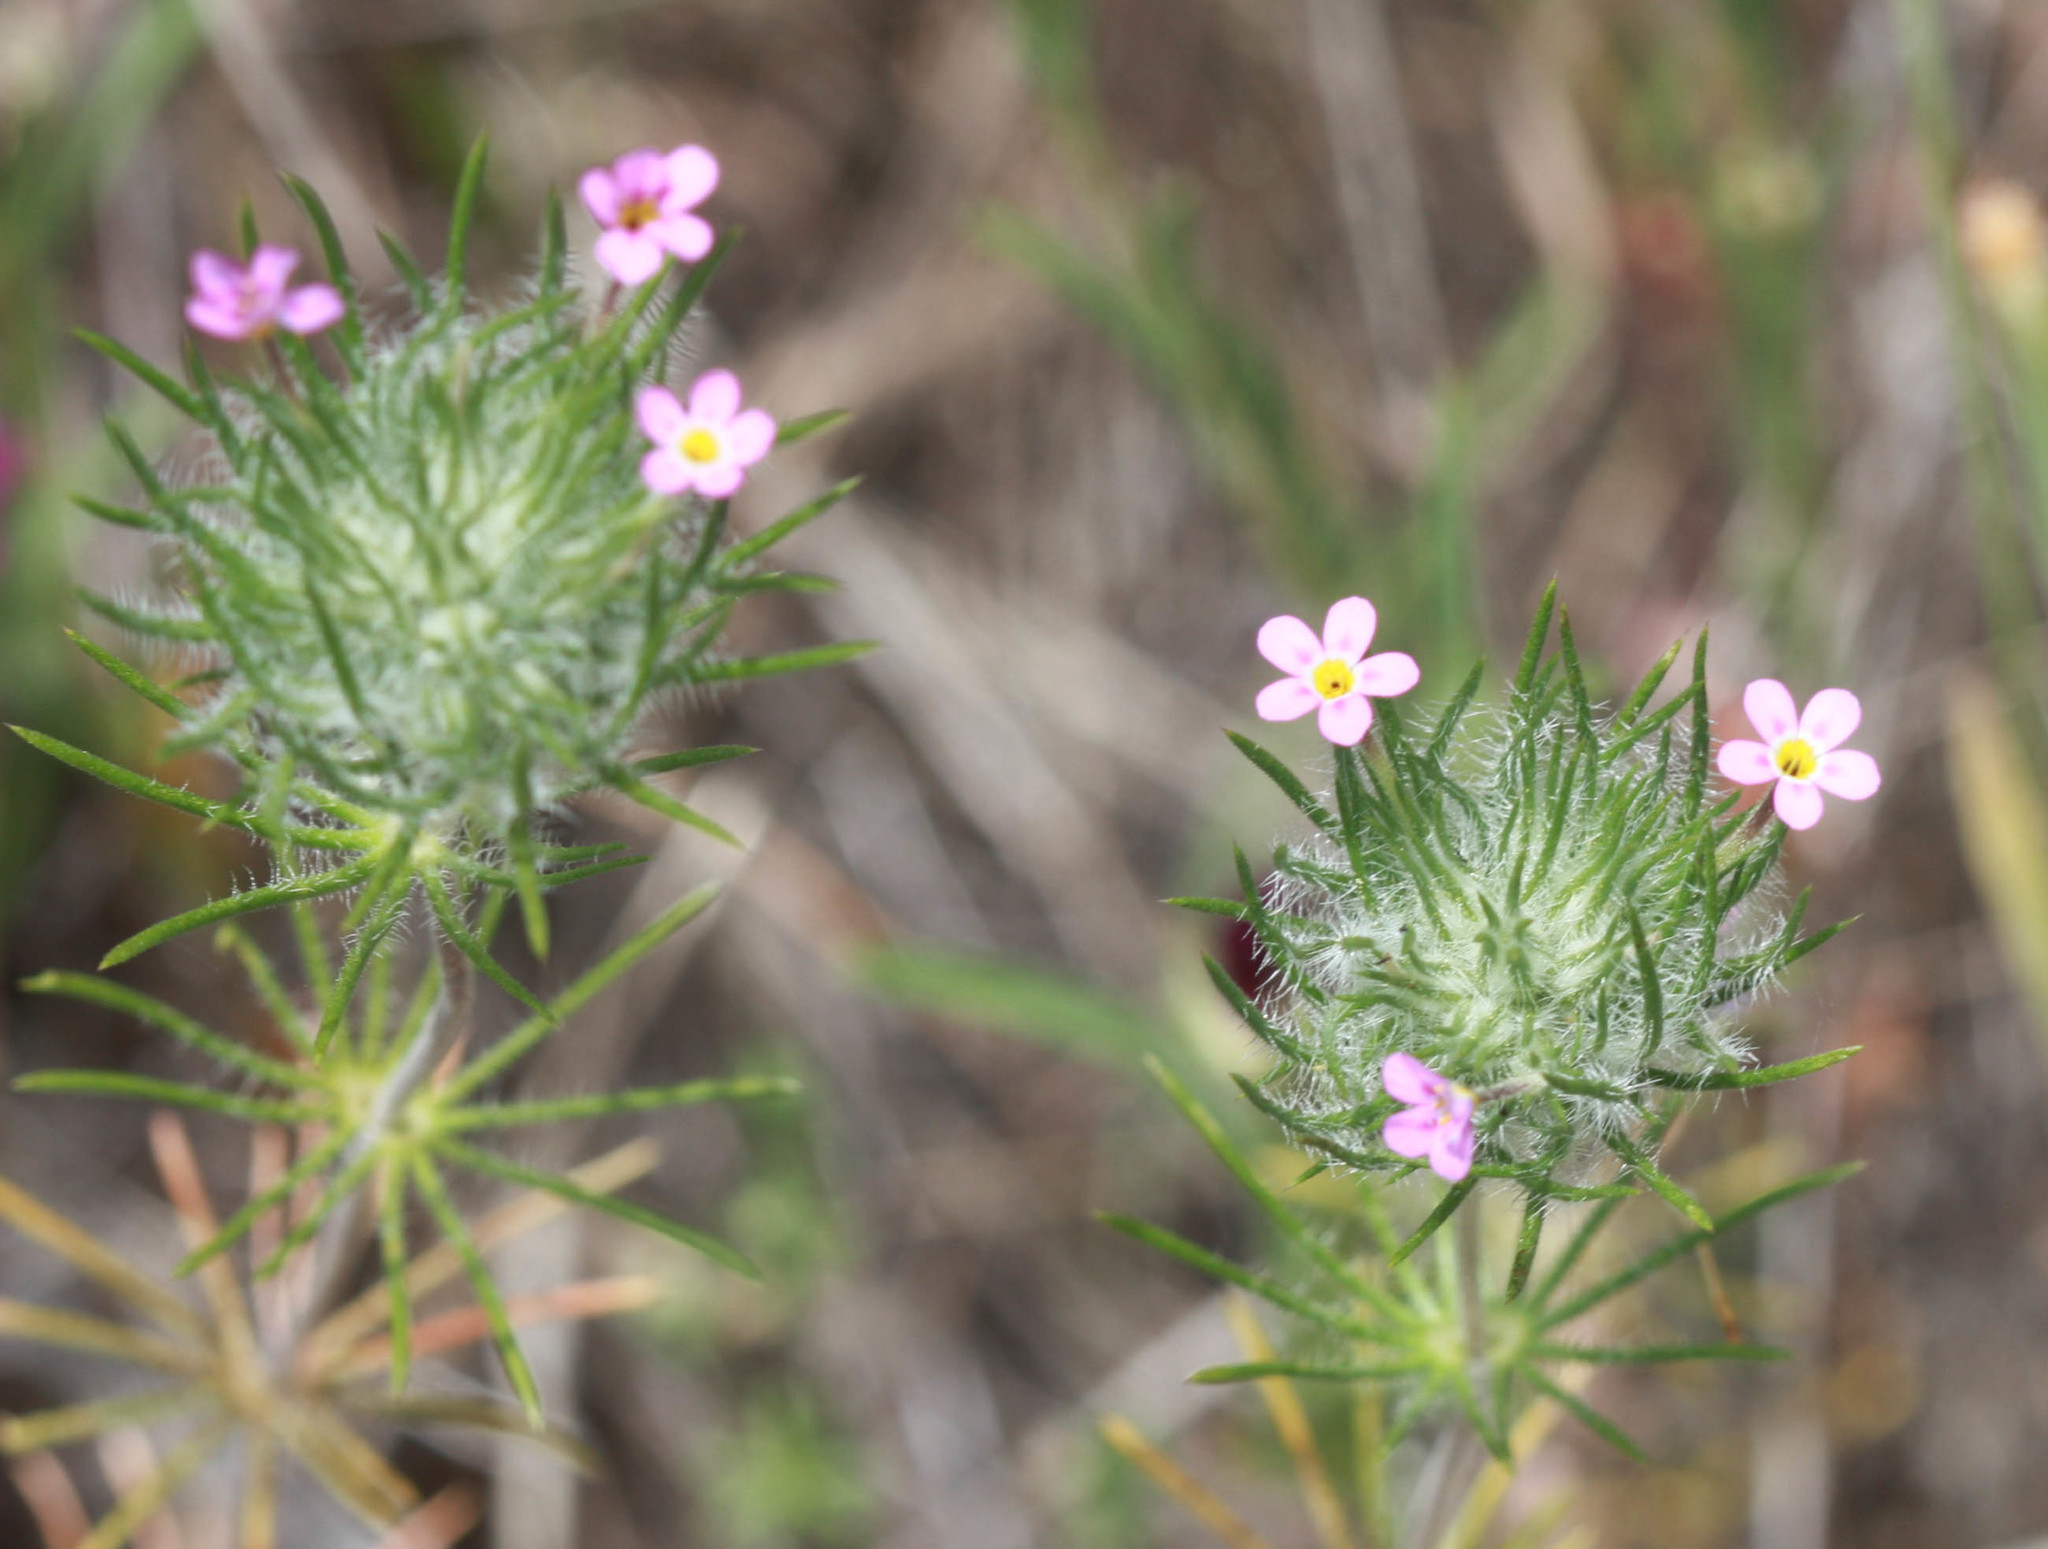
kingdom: Plantae
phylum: Tracheophyta
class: Magnoliopsida
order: Ericales
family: Polemoniaceae
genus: Leptosiphon
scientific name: Leptosiphon ciliatus
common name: Whiskerbrush
